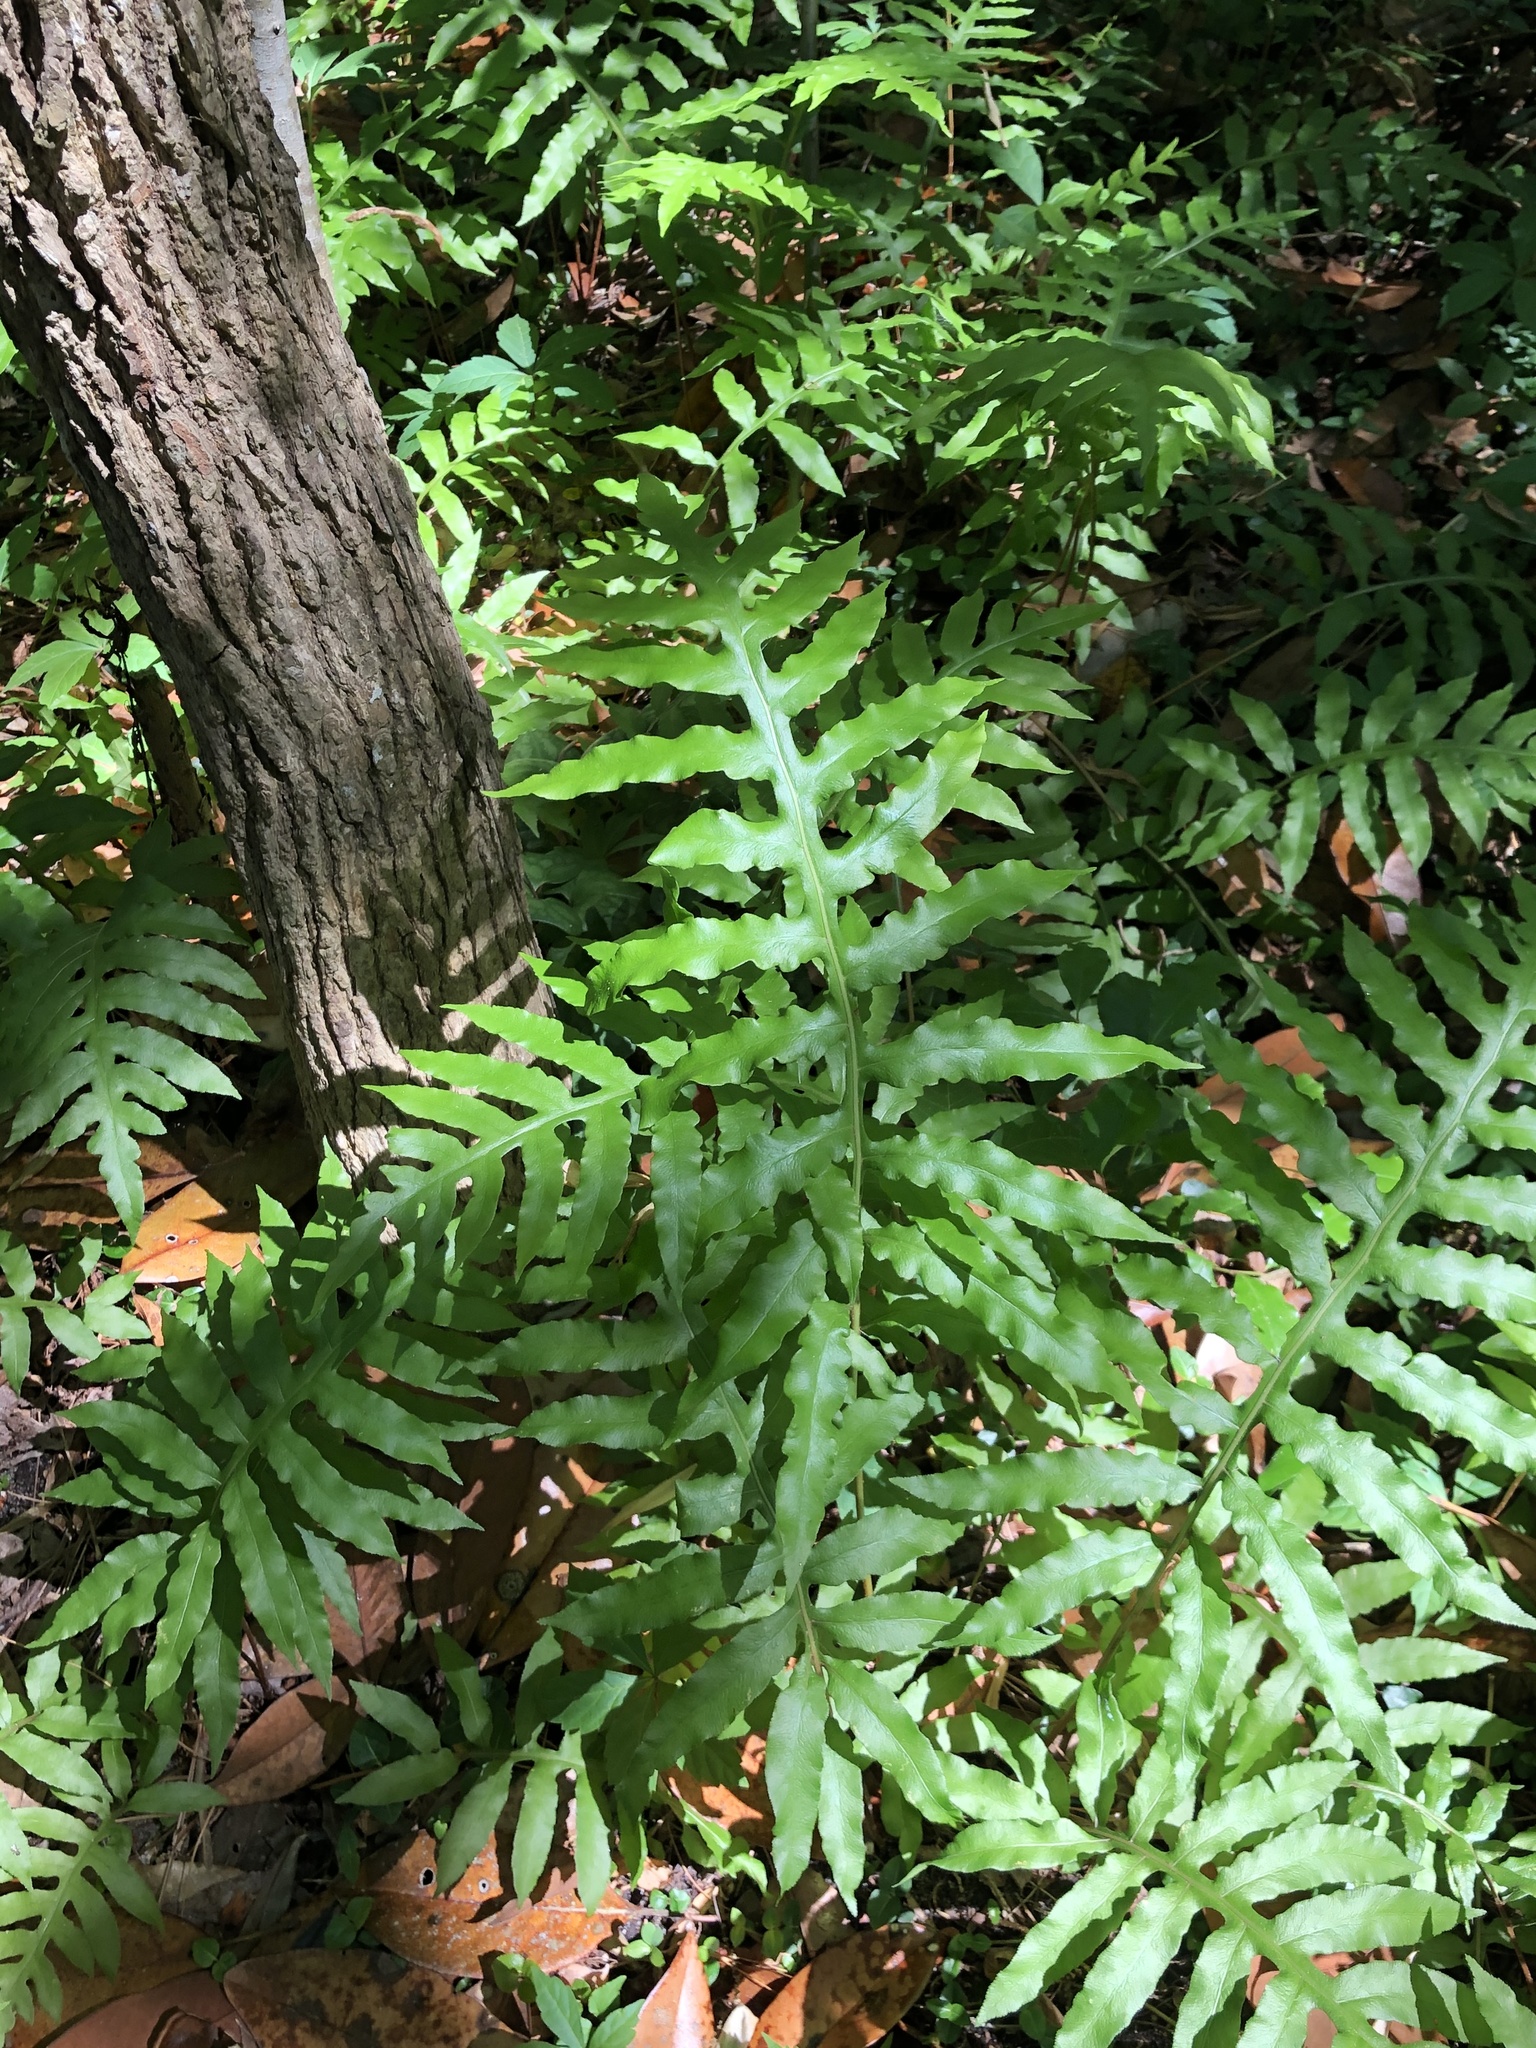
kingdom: Plantae
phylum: Tracheophyta
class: Polypodiopsida
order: Polypodiales
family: Blechnaceae
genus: Lorinseria
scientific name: Lorinseria areolata
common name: Dwarf chain fern
